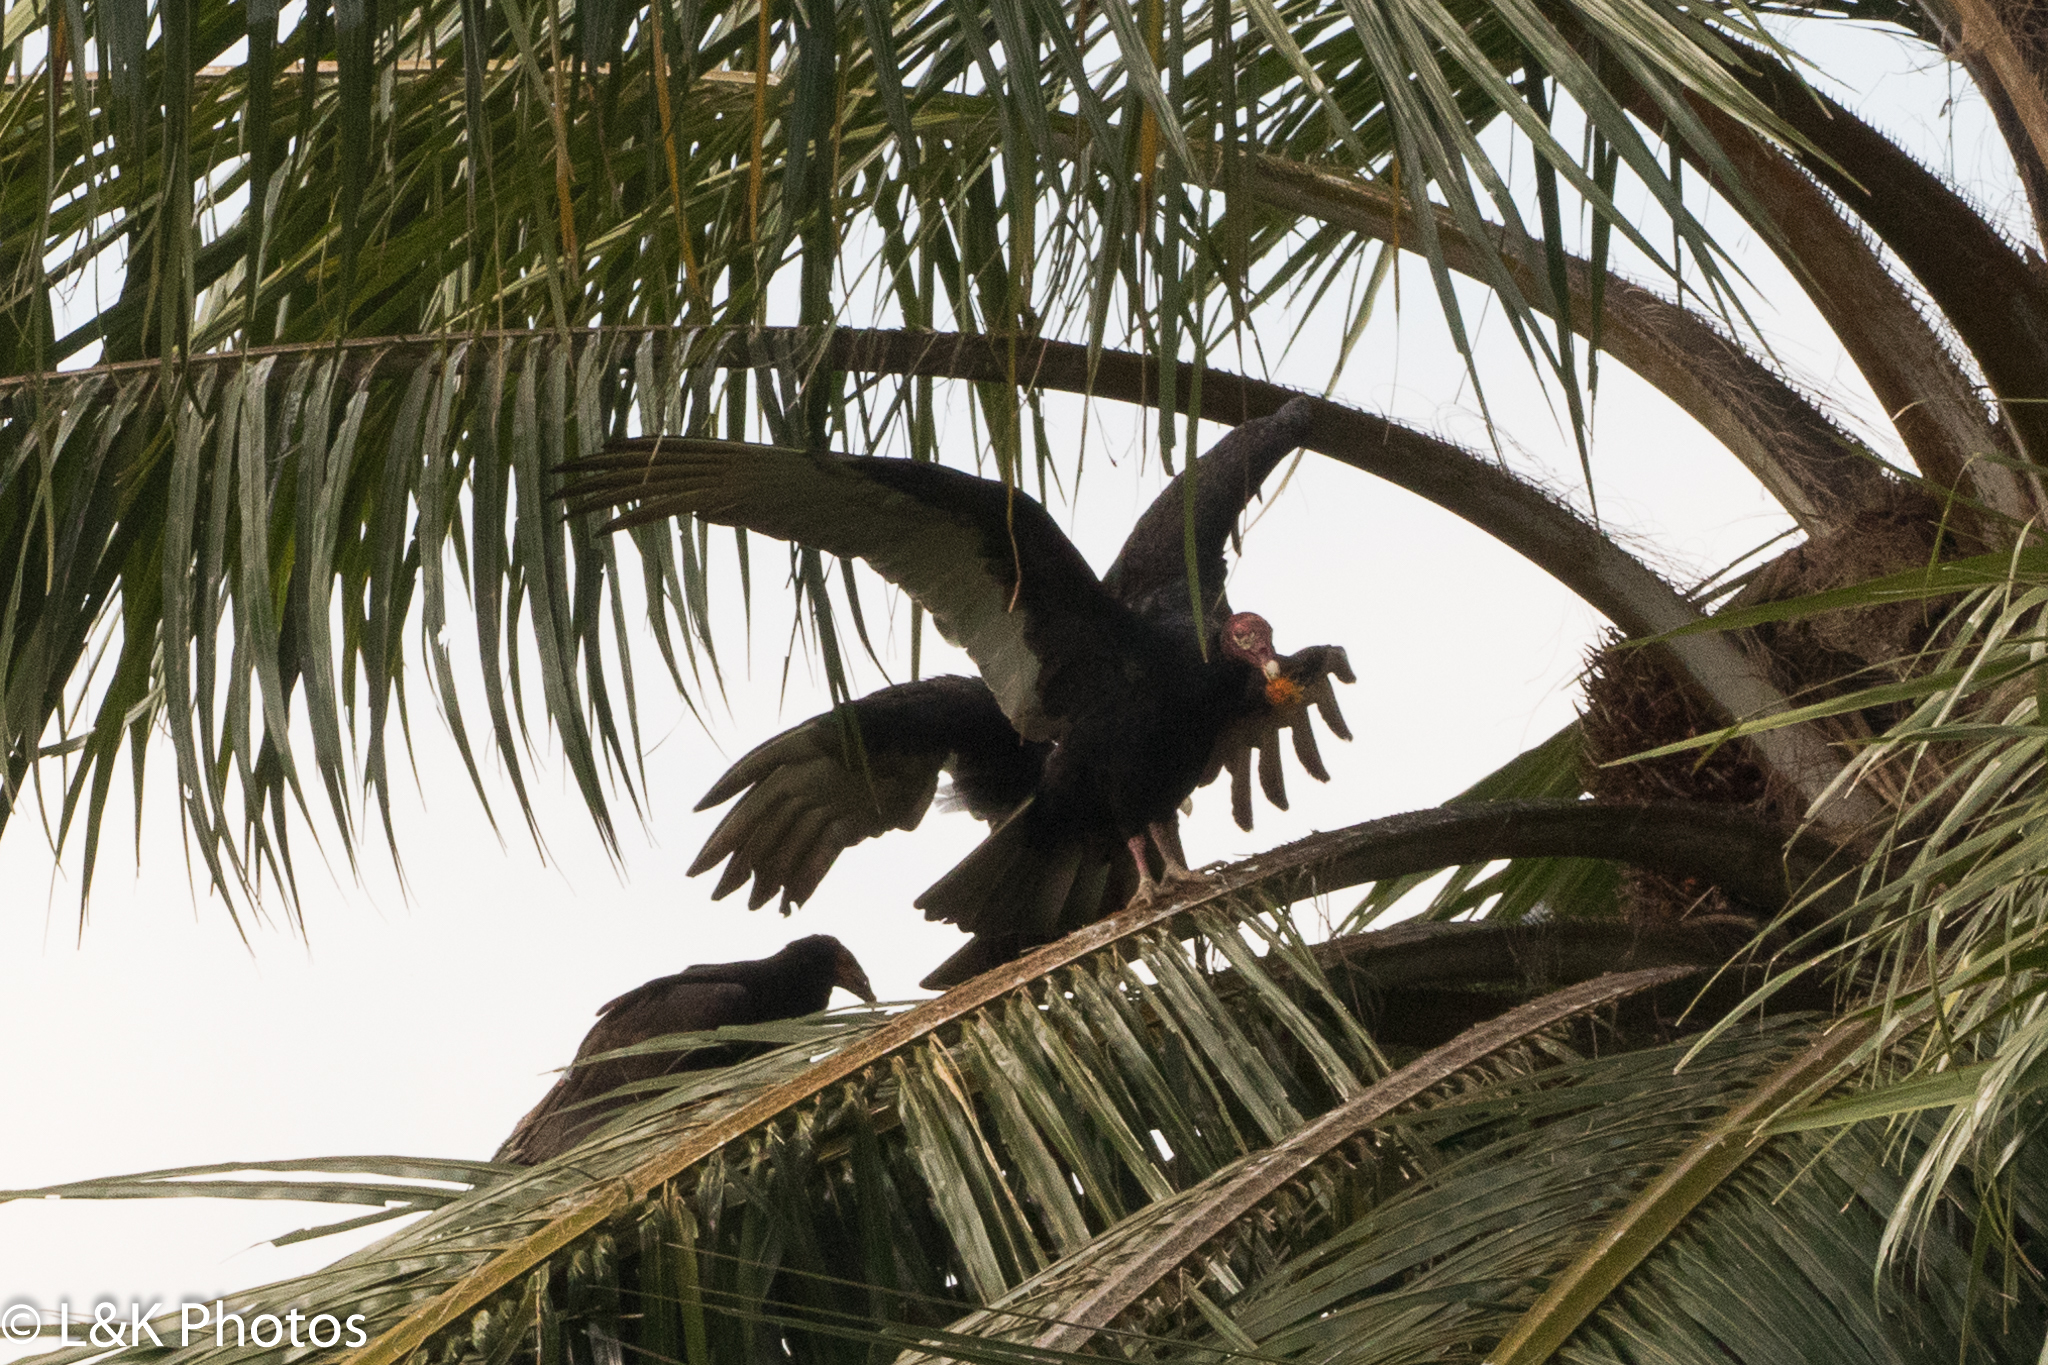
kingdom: Animalia
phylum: Chordata
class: Aves
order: Accipitriformes
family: Cathartidae
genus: Cathartes
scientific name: Cathartes aura
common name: Turkey vulture
